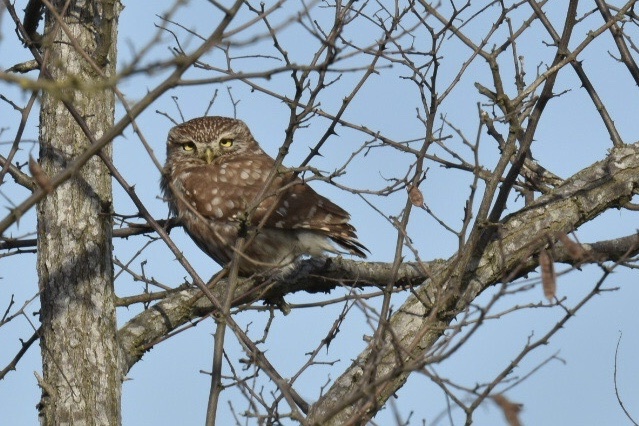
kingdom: Animalia
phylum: Chordata
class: Aves
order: Strigiformes
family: Strigidae
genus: Athene
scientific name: Athene noctua
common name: Little owl
